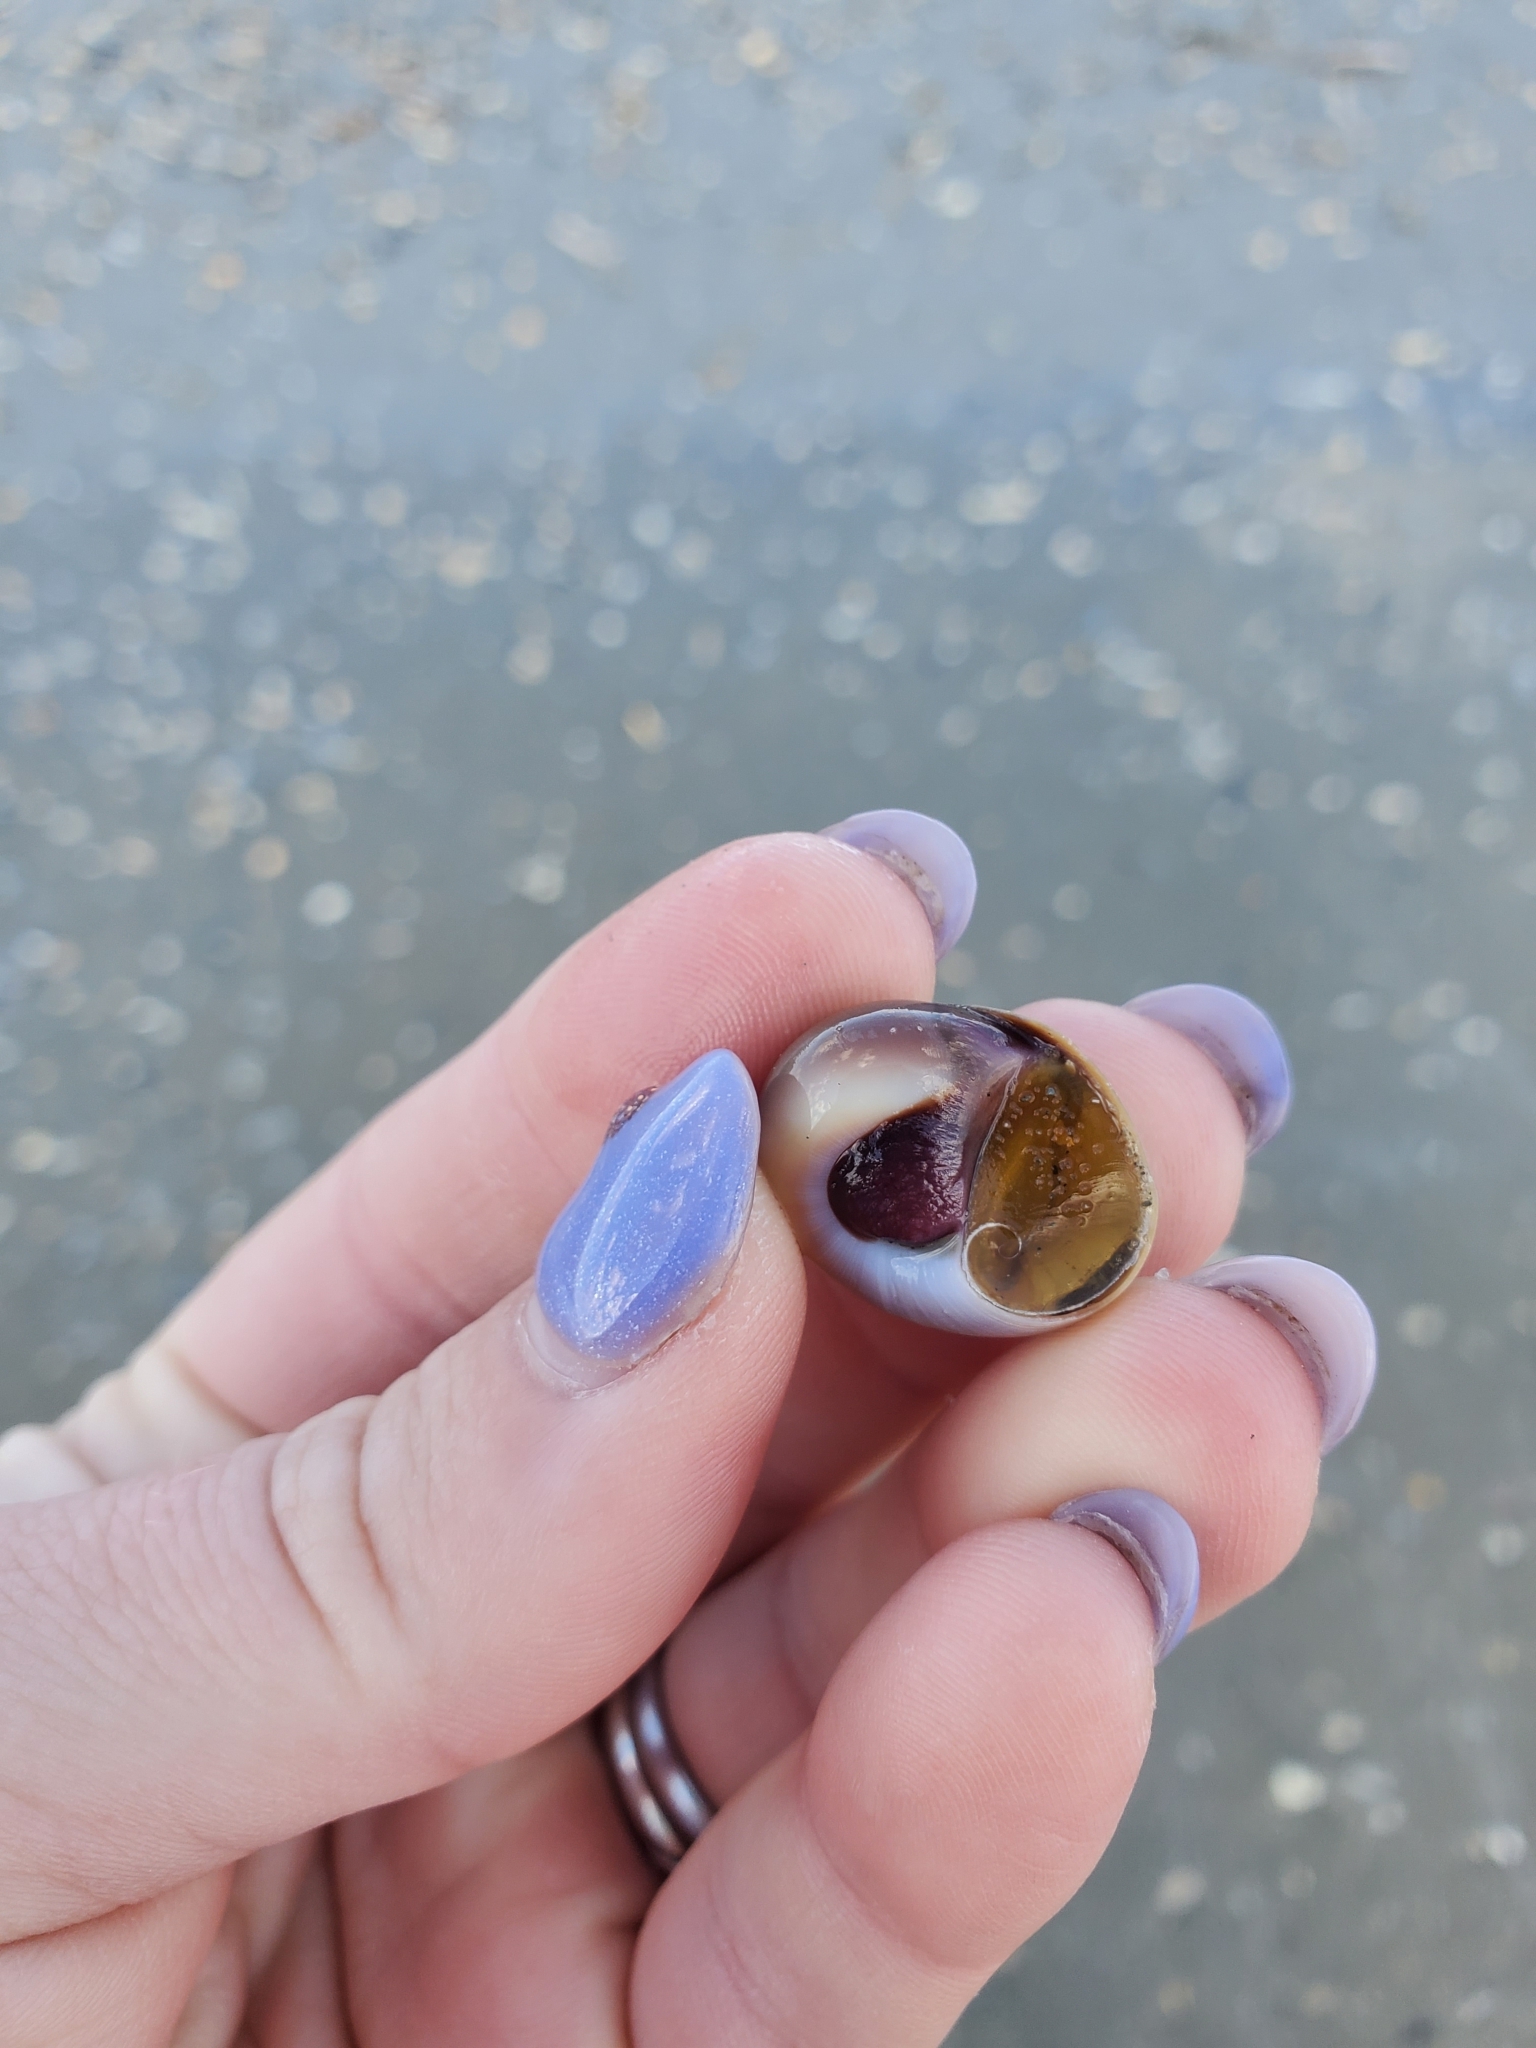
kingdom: Animalia
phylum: Mollusca
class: Gastropoda
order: Littorinimorpha
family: Naticidae
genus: Neverita
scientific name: Neverita duplicata
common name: Lobed moonsnail
